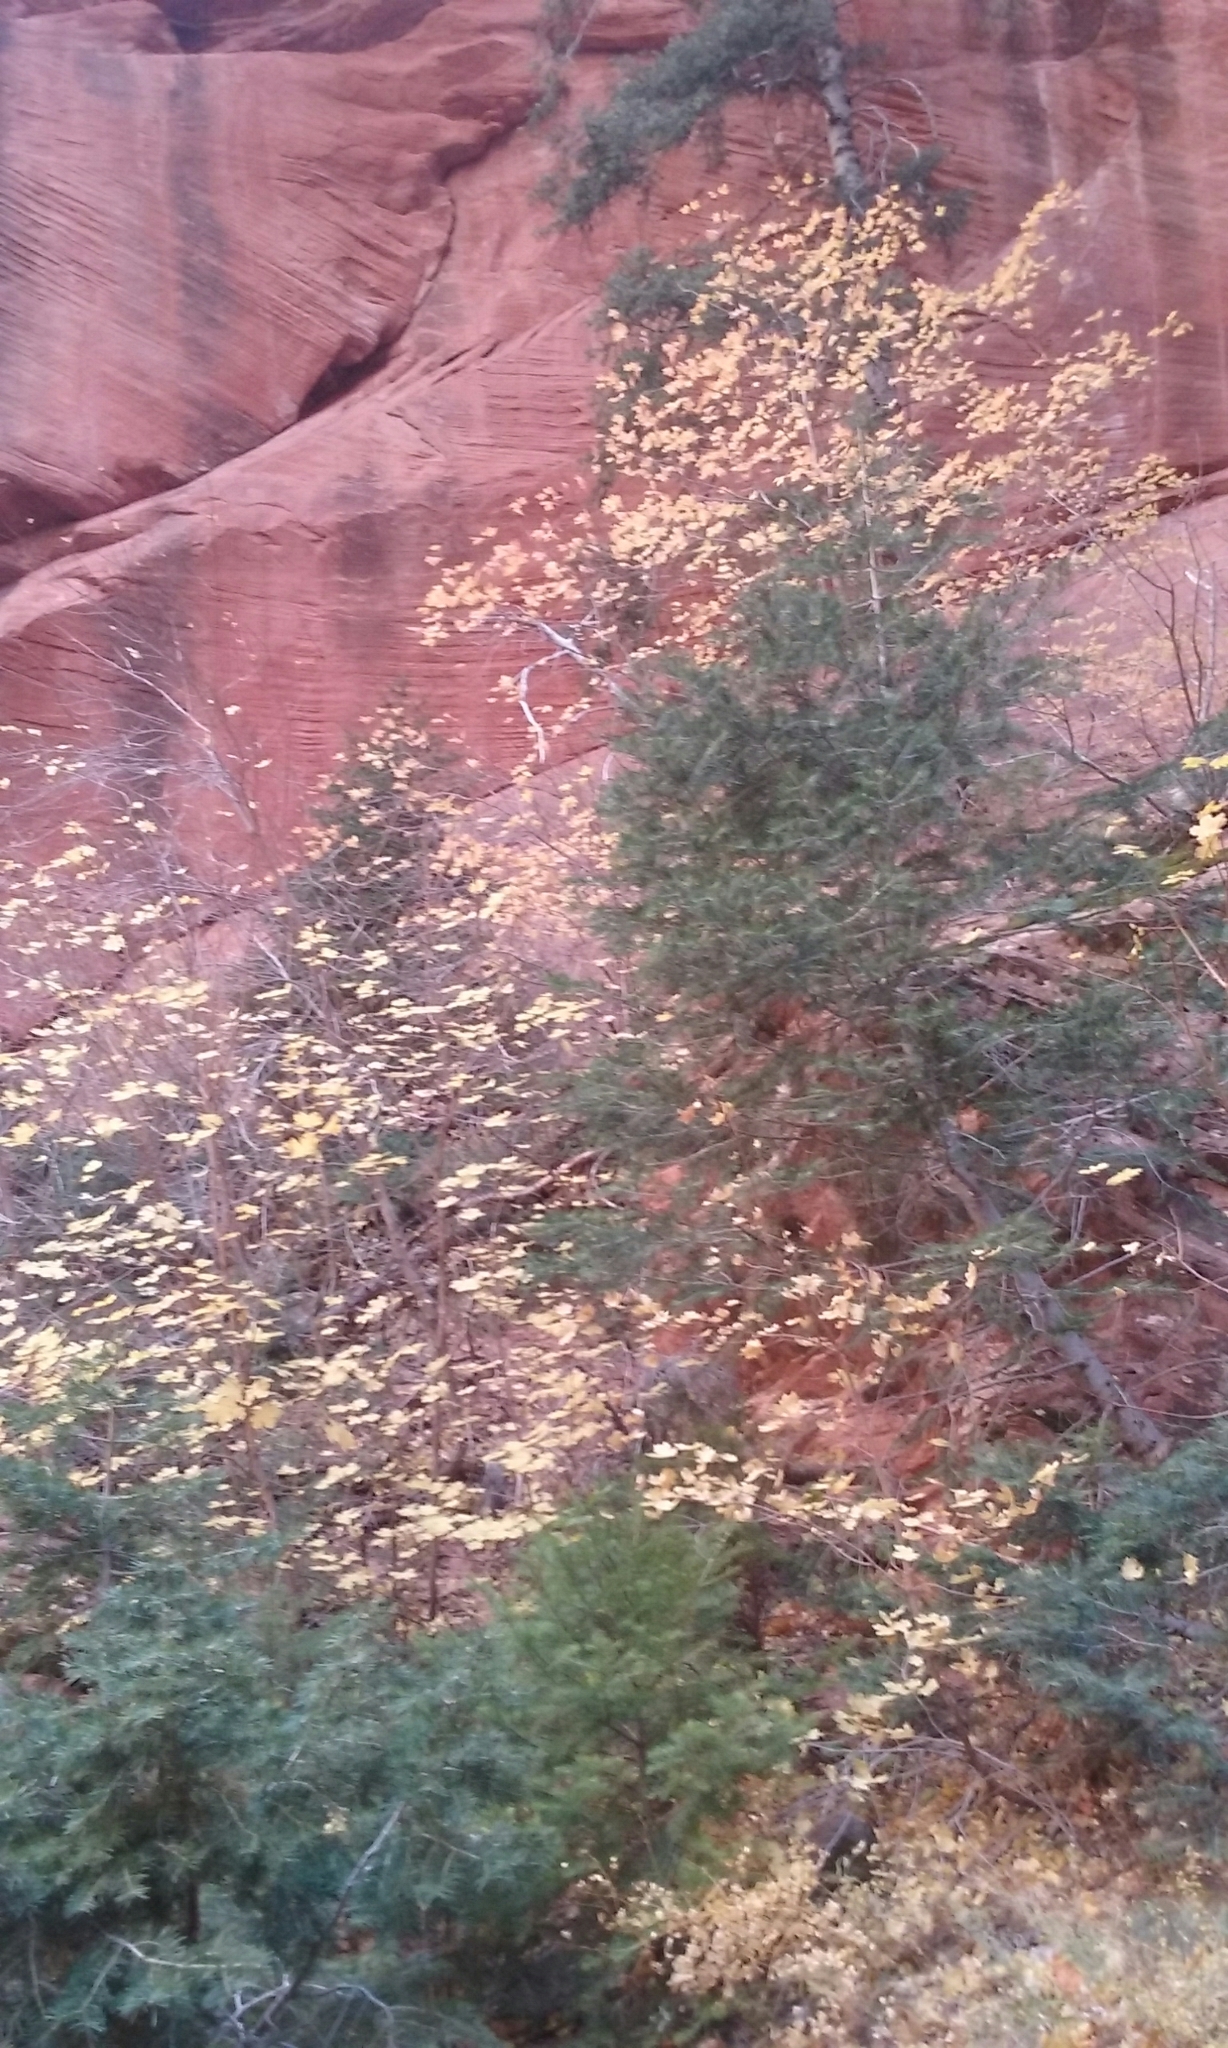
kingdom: Plantae
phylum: Tracheophyta
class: Magnoliopsida
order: Sapindales
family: Sapindaceae
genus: Acer
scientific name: Acer grandidentatum
